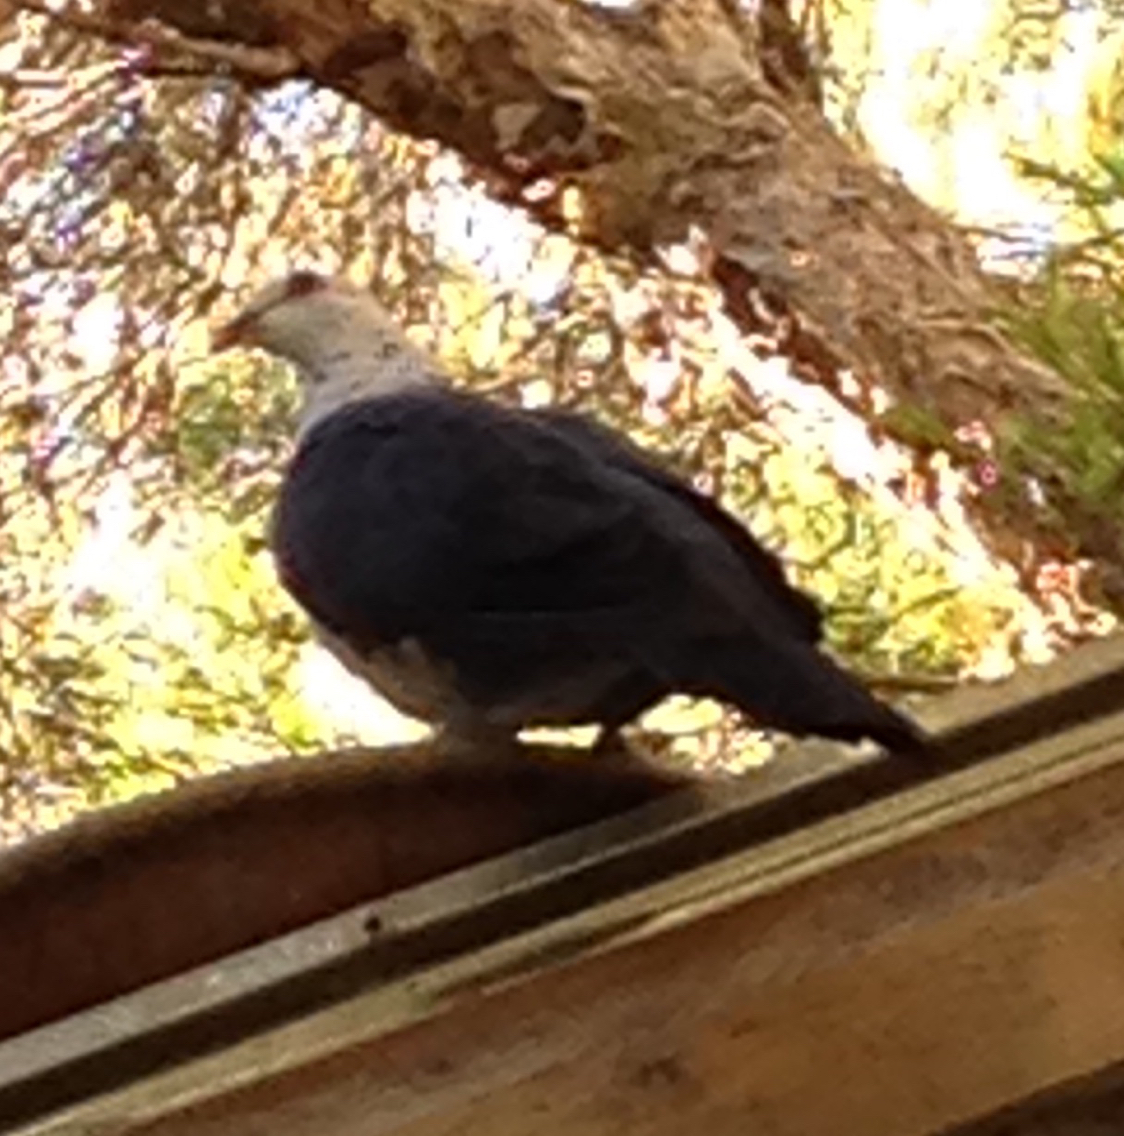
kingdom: Animalia
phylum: Chordata
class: Aves
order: Columbiformes
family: Columbidae
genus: Columba
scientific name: Columba leucomela
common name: White-headed pigeon
